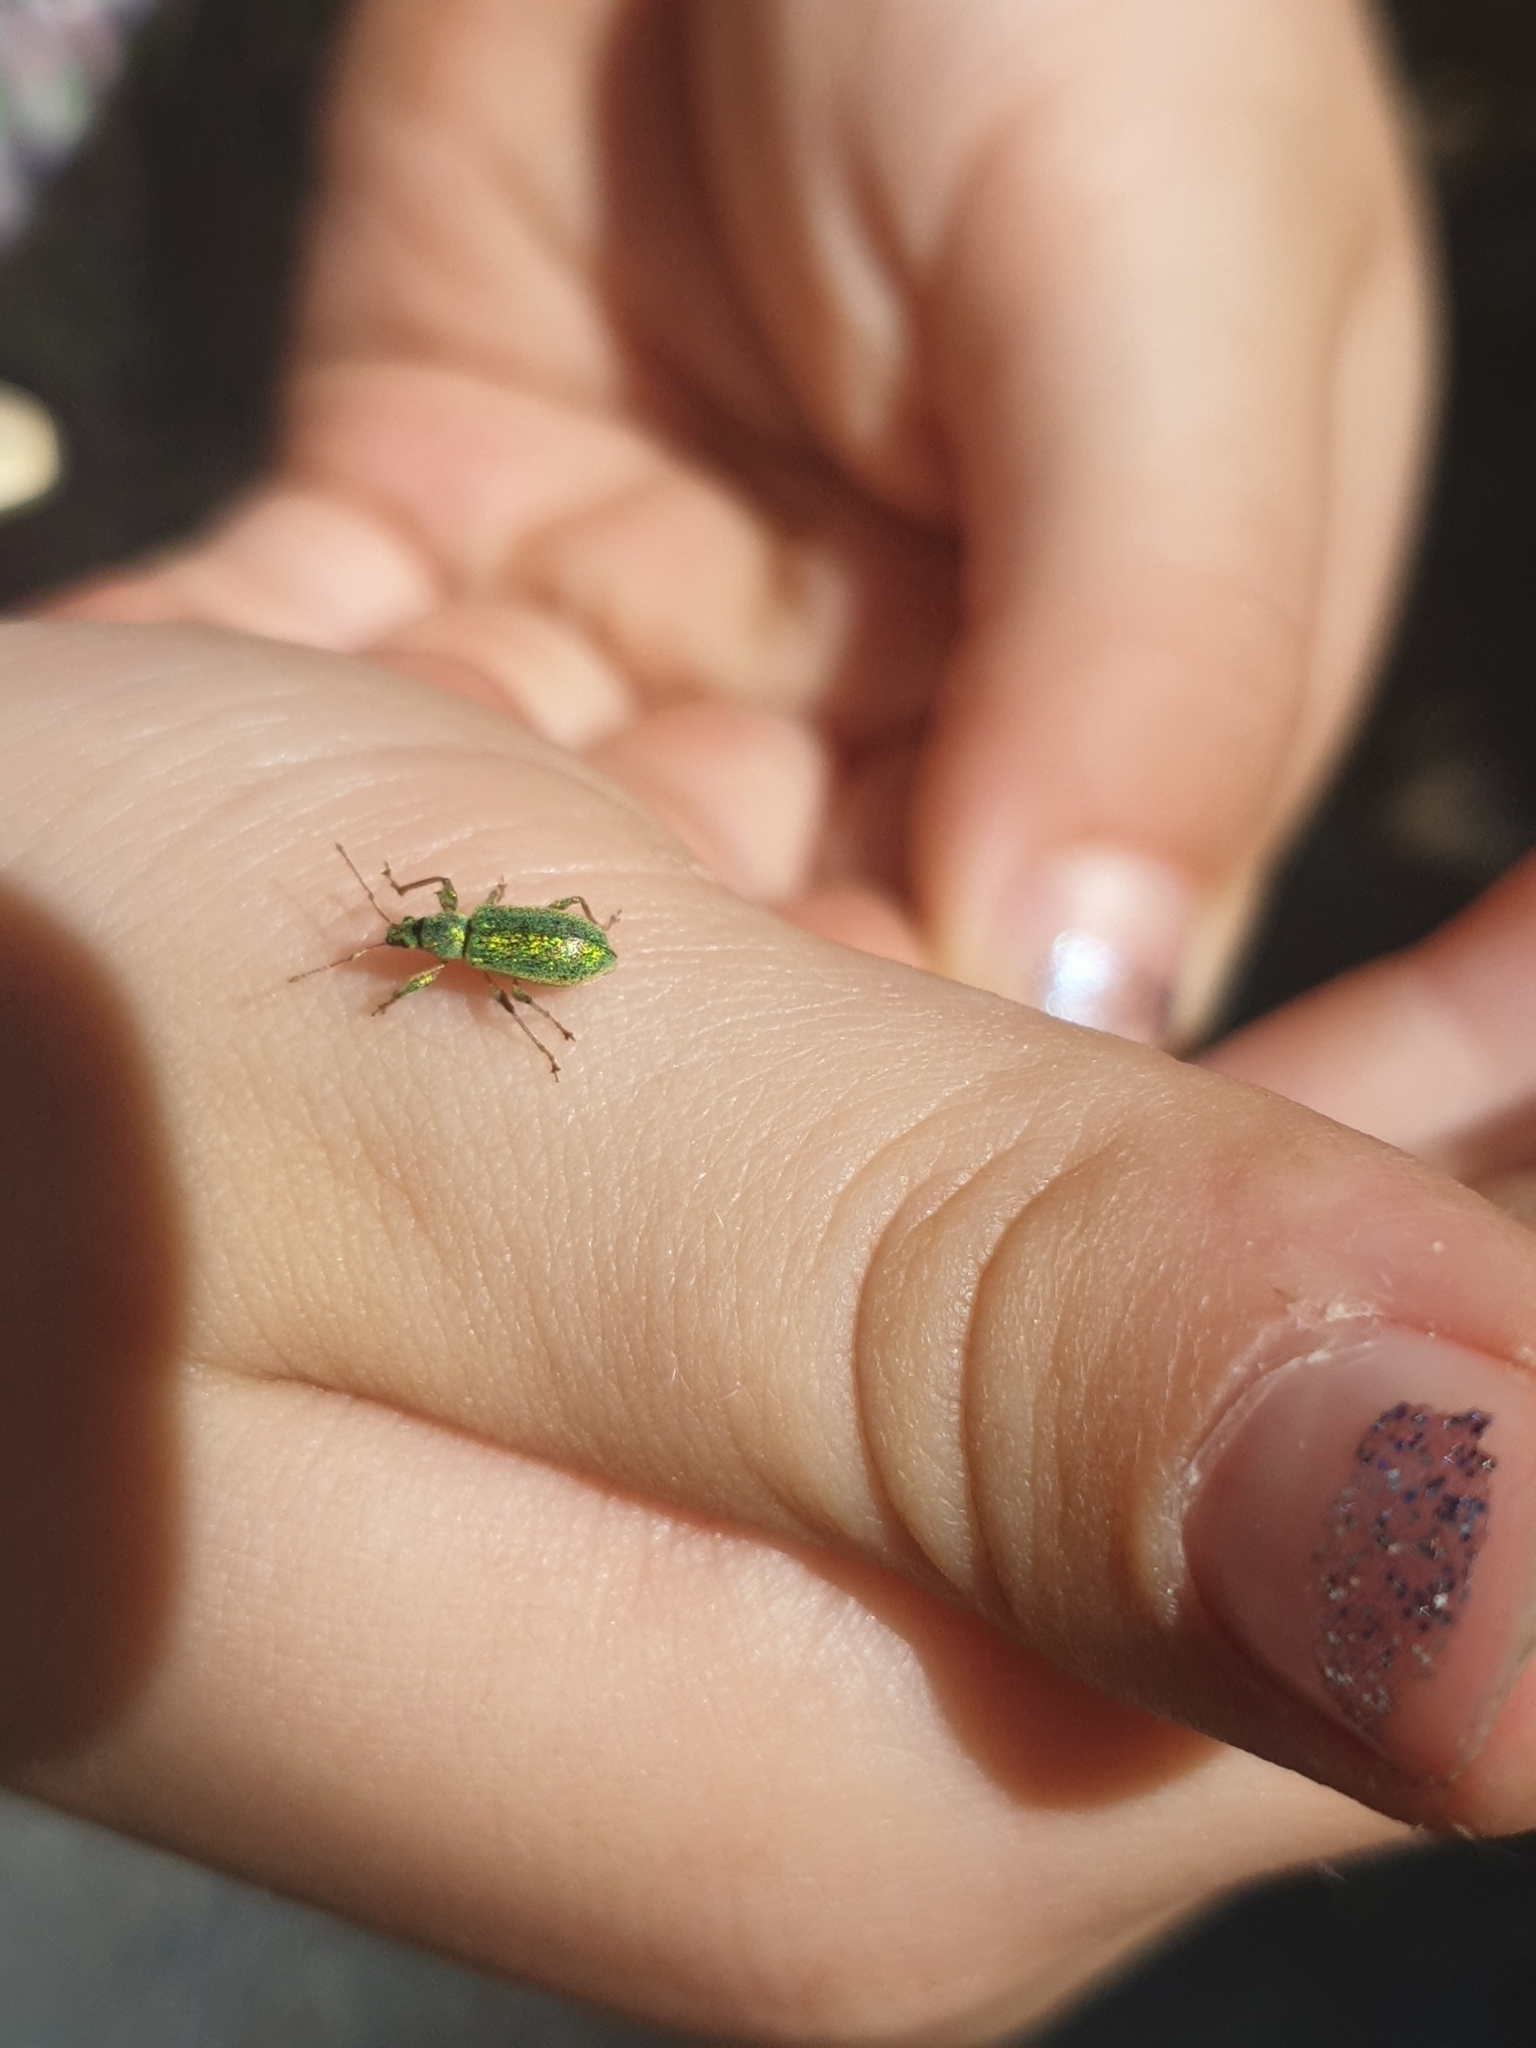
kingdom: Animalia
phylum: Arthropoda
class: Insecta
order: Coleoptera
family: Curculionidae
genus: Phyllobius
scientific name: Phyllobius arborator
